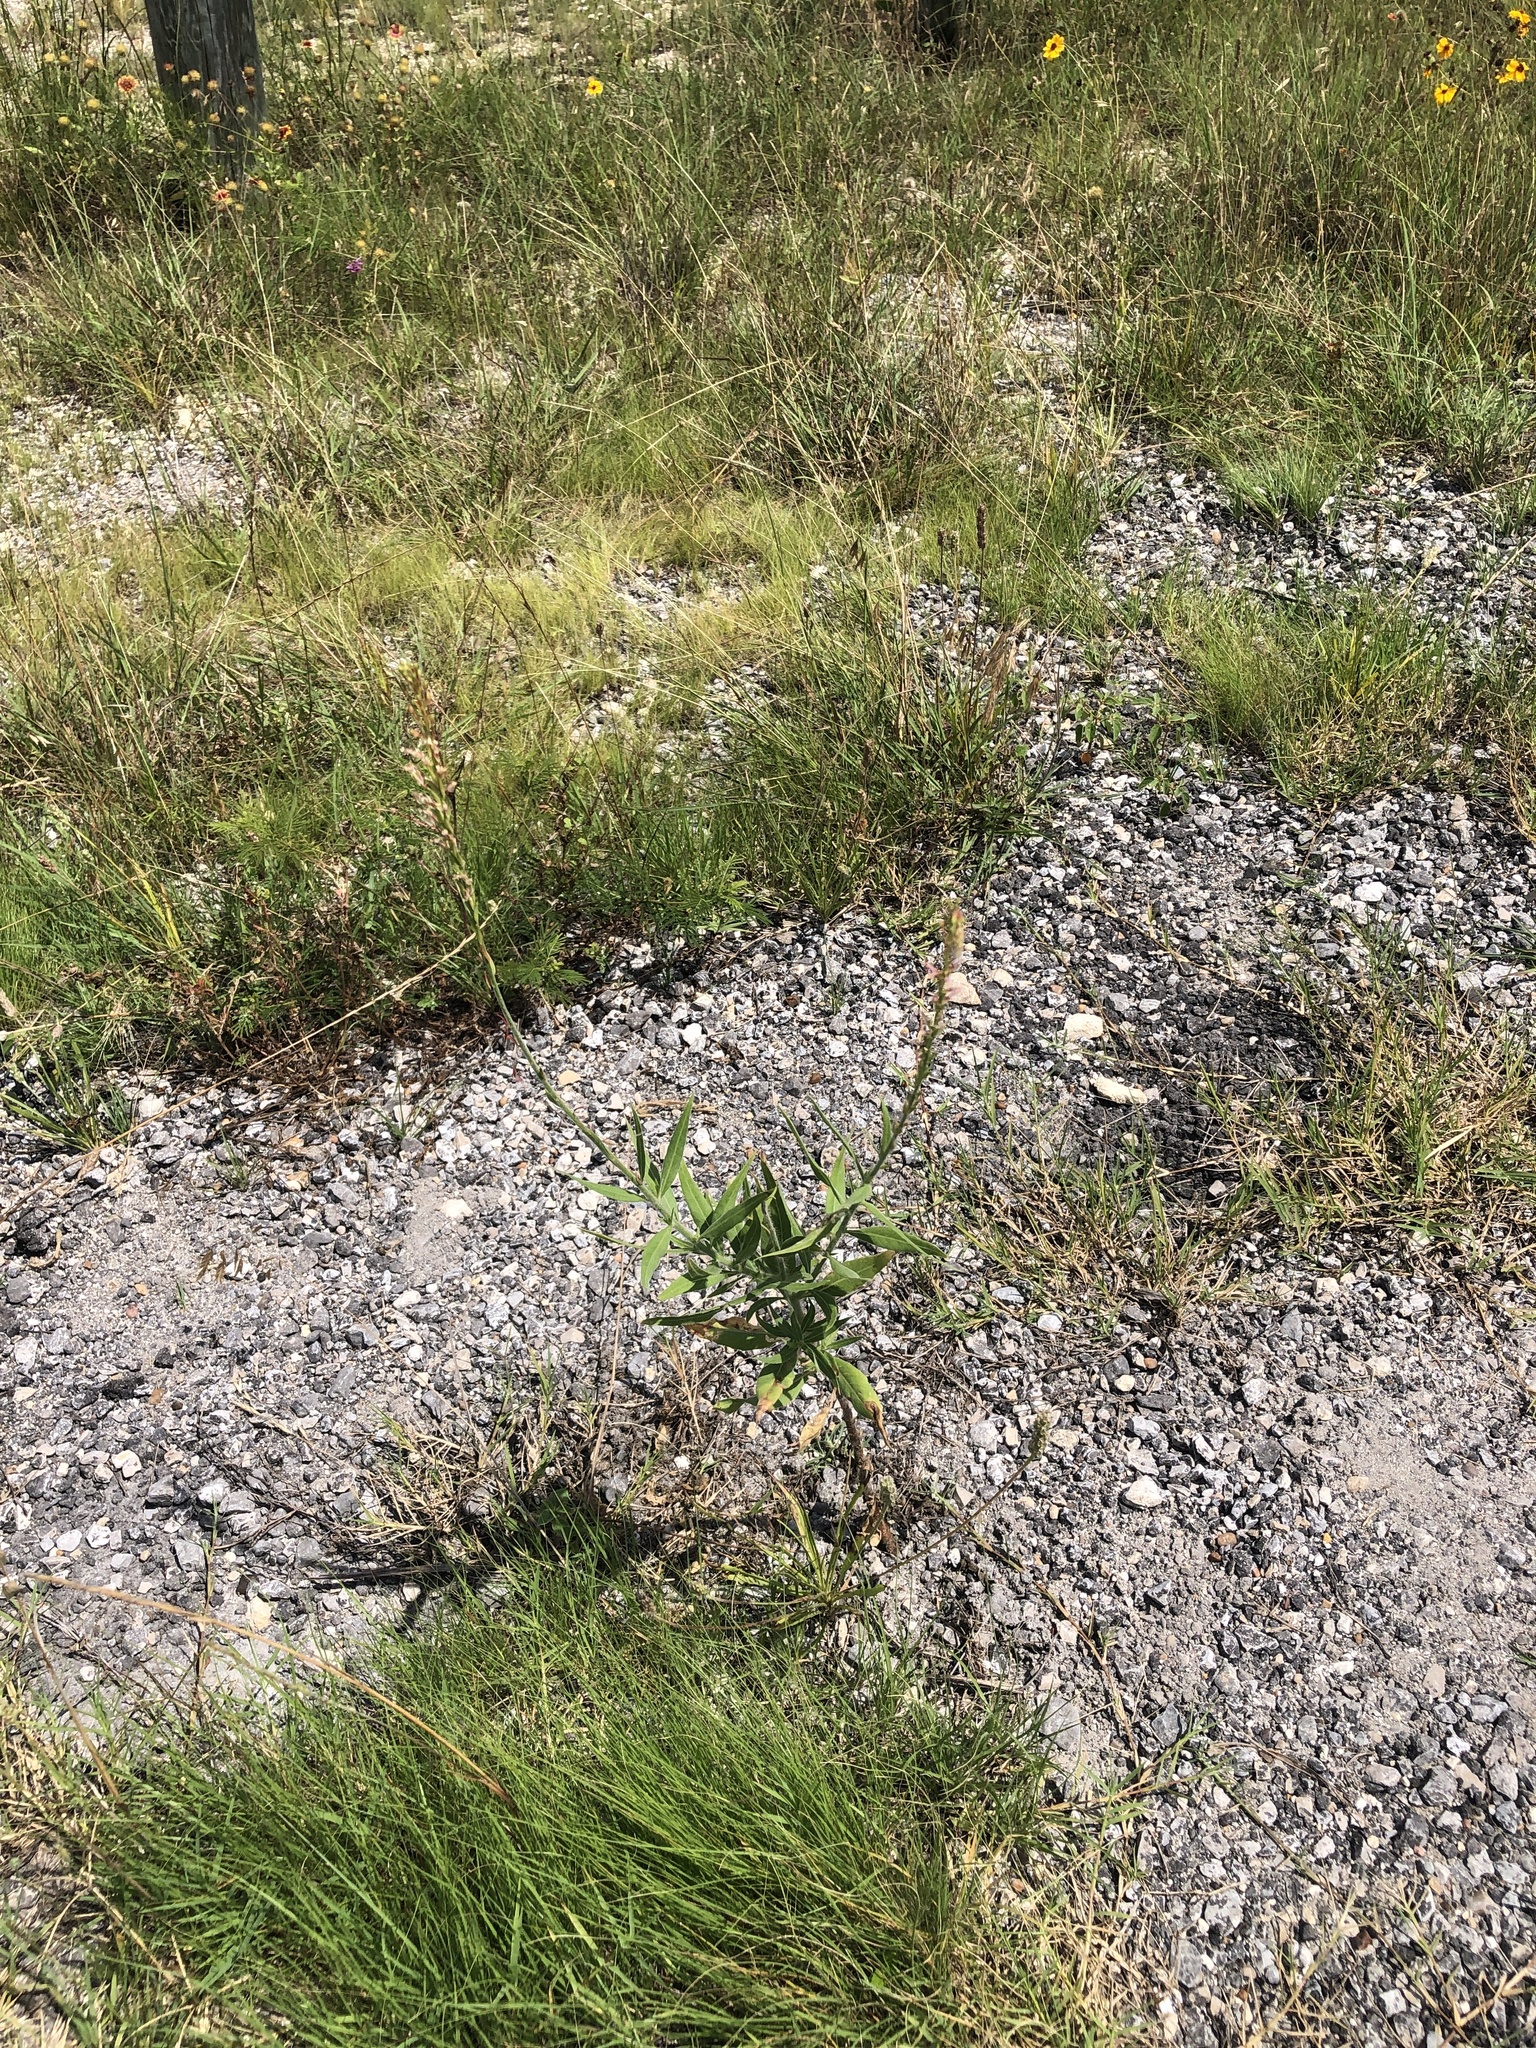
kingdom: Plantae
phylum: Tracheophyta
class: Magnoliopsida
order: Myrtales
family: Onagraceae
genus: Oenothera
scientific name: Oenothera curtiflora
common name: Velvetweed
